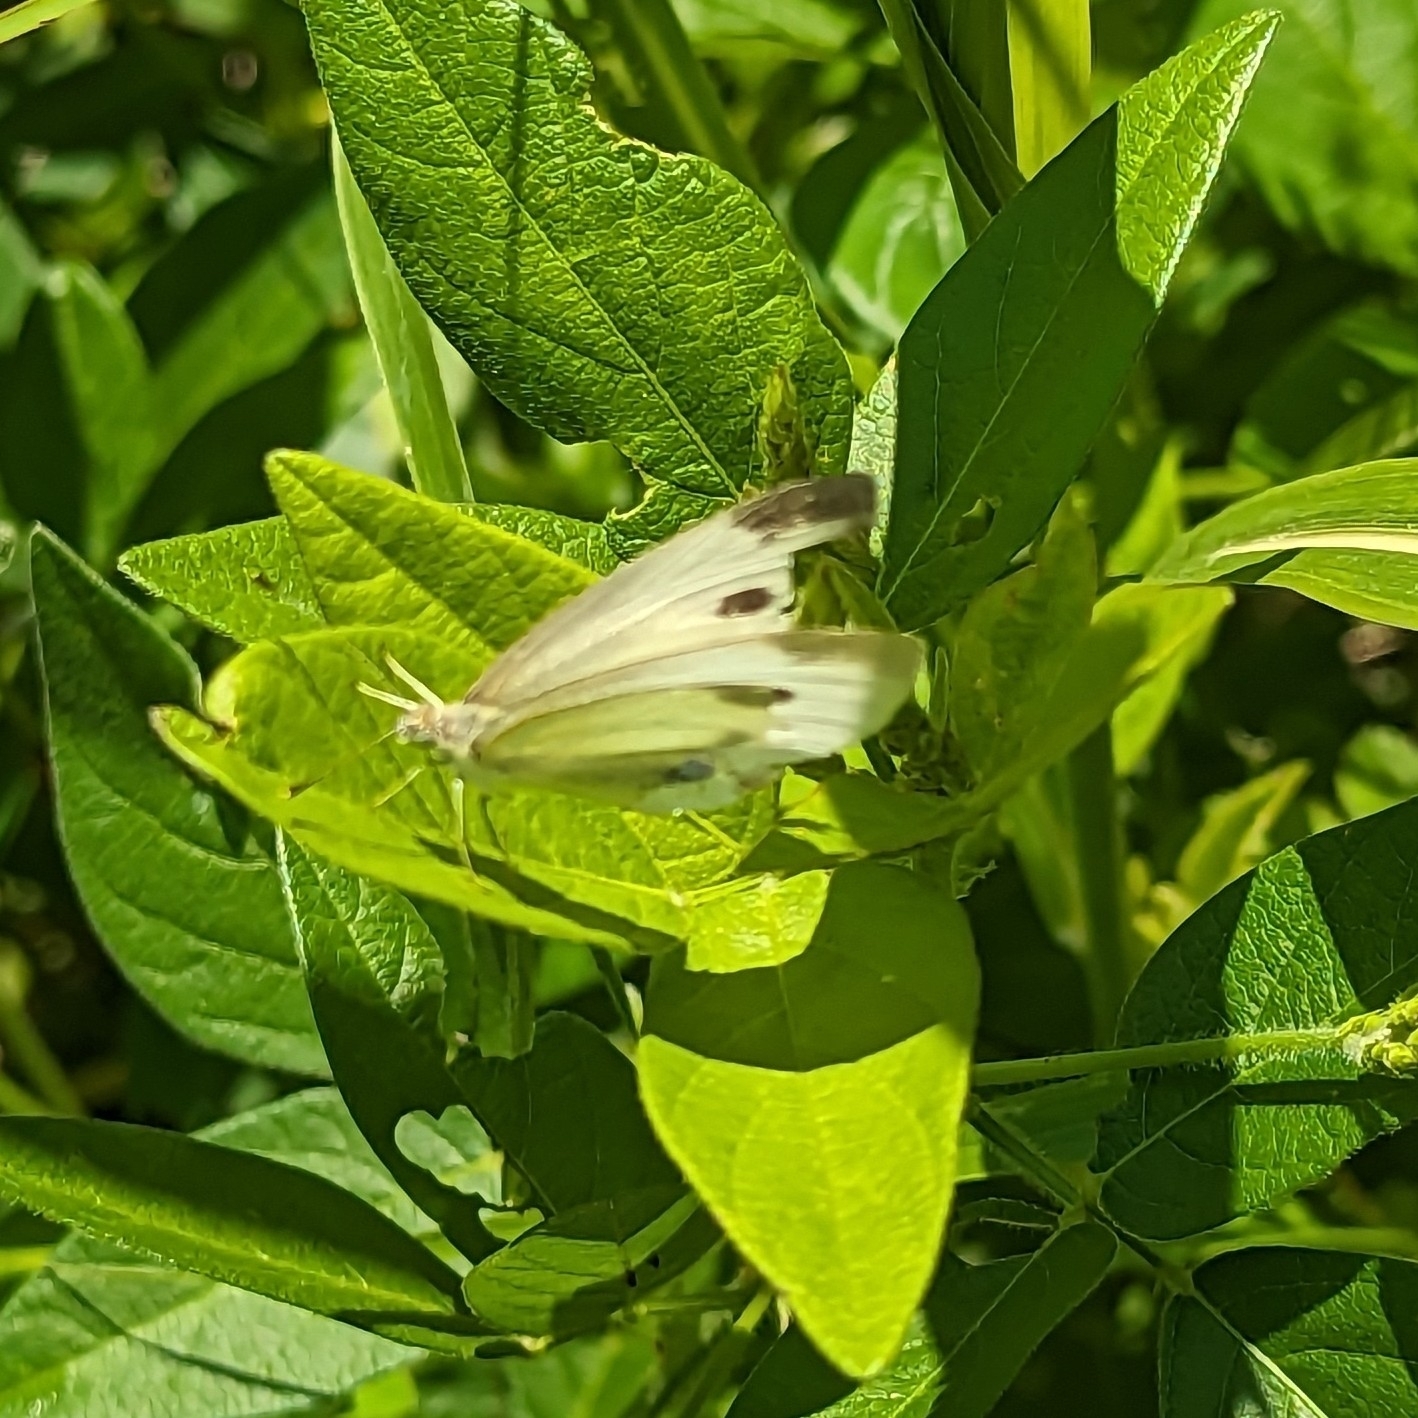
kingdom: Animalia
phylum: Arthropoda
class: Insecta
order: Lepidoptera
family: Pieridae
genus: Pieris
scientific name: Pieris rapae
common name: Small white
